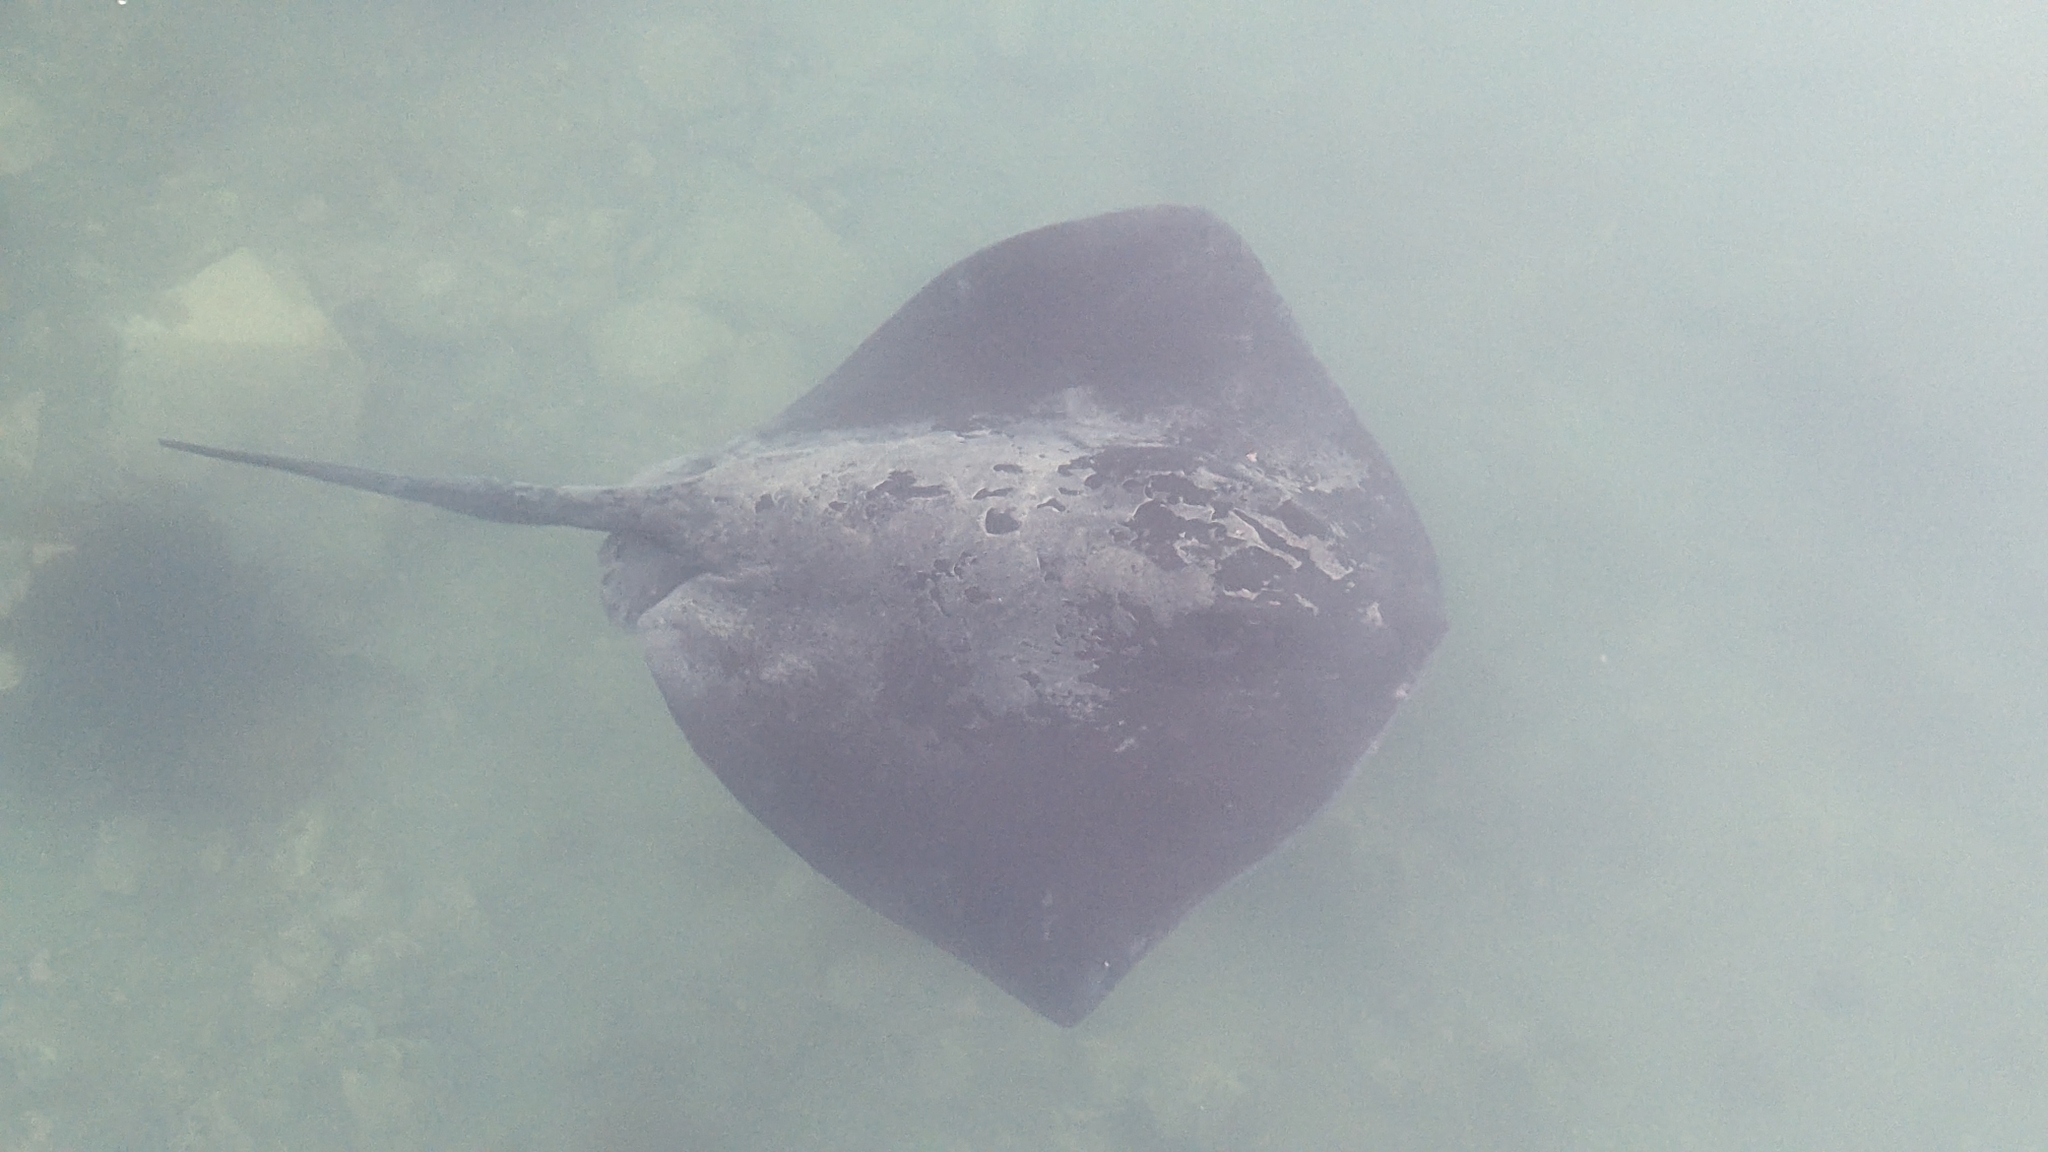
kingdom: Animalia
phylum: Chordata
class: Elasmobranchii
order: Myliobatiformes
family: Dasyatidae
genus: Bathytoshia
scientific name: Bathytoshia brevicaudata
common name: Short-tail stingray
